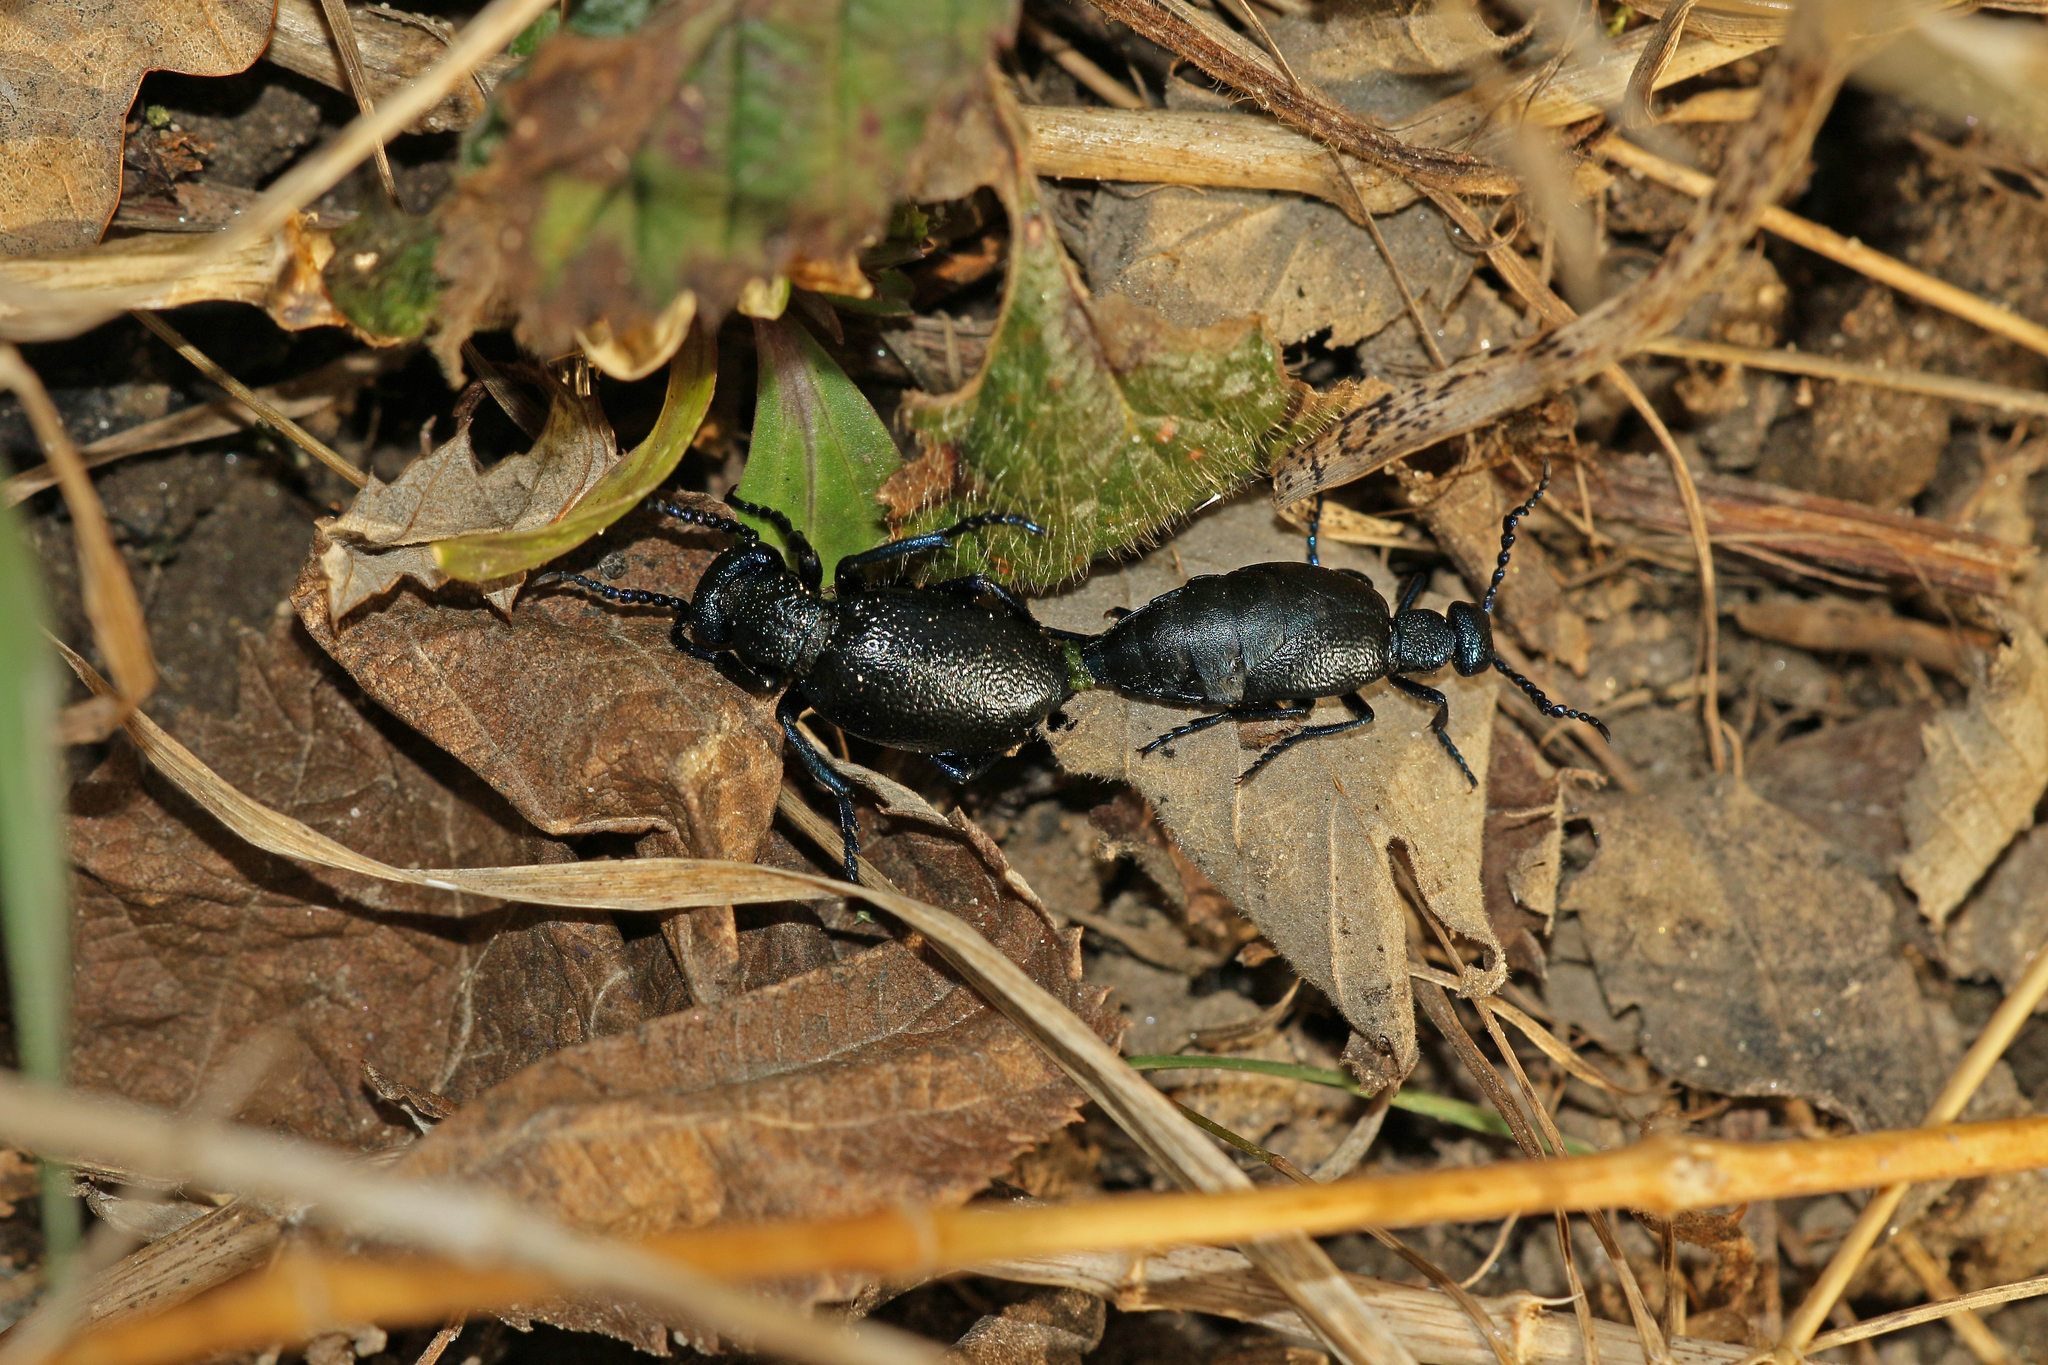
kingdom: Animalia
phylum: Arthropoda
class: Insecta
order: Coleoptera
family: Meloidae
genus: Meloe
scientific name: Meloe proscarabaeus
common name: Black oil-beetle
